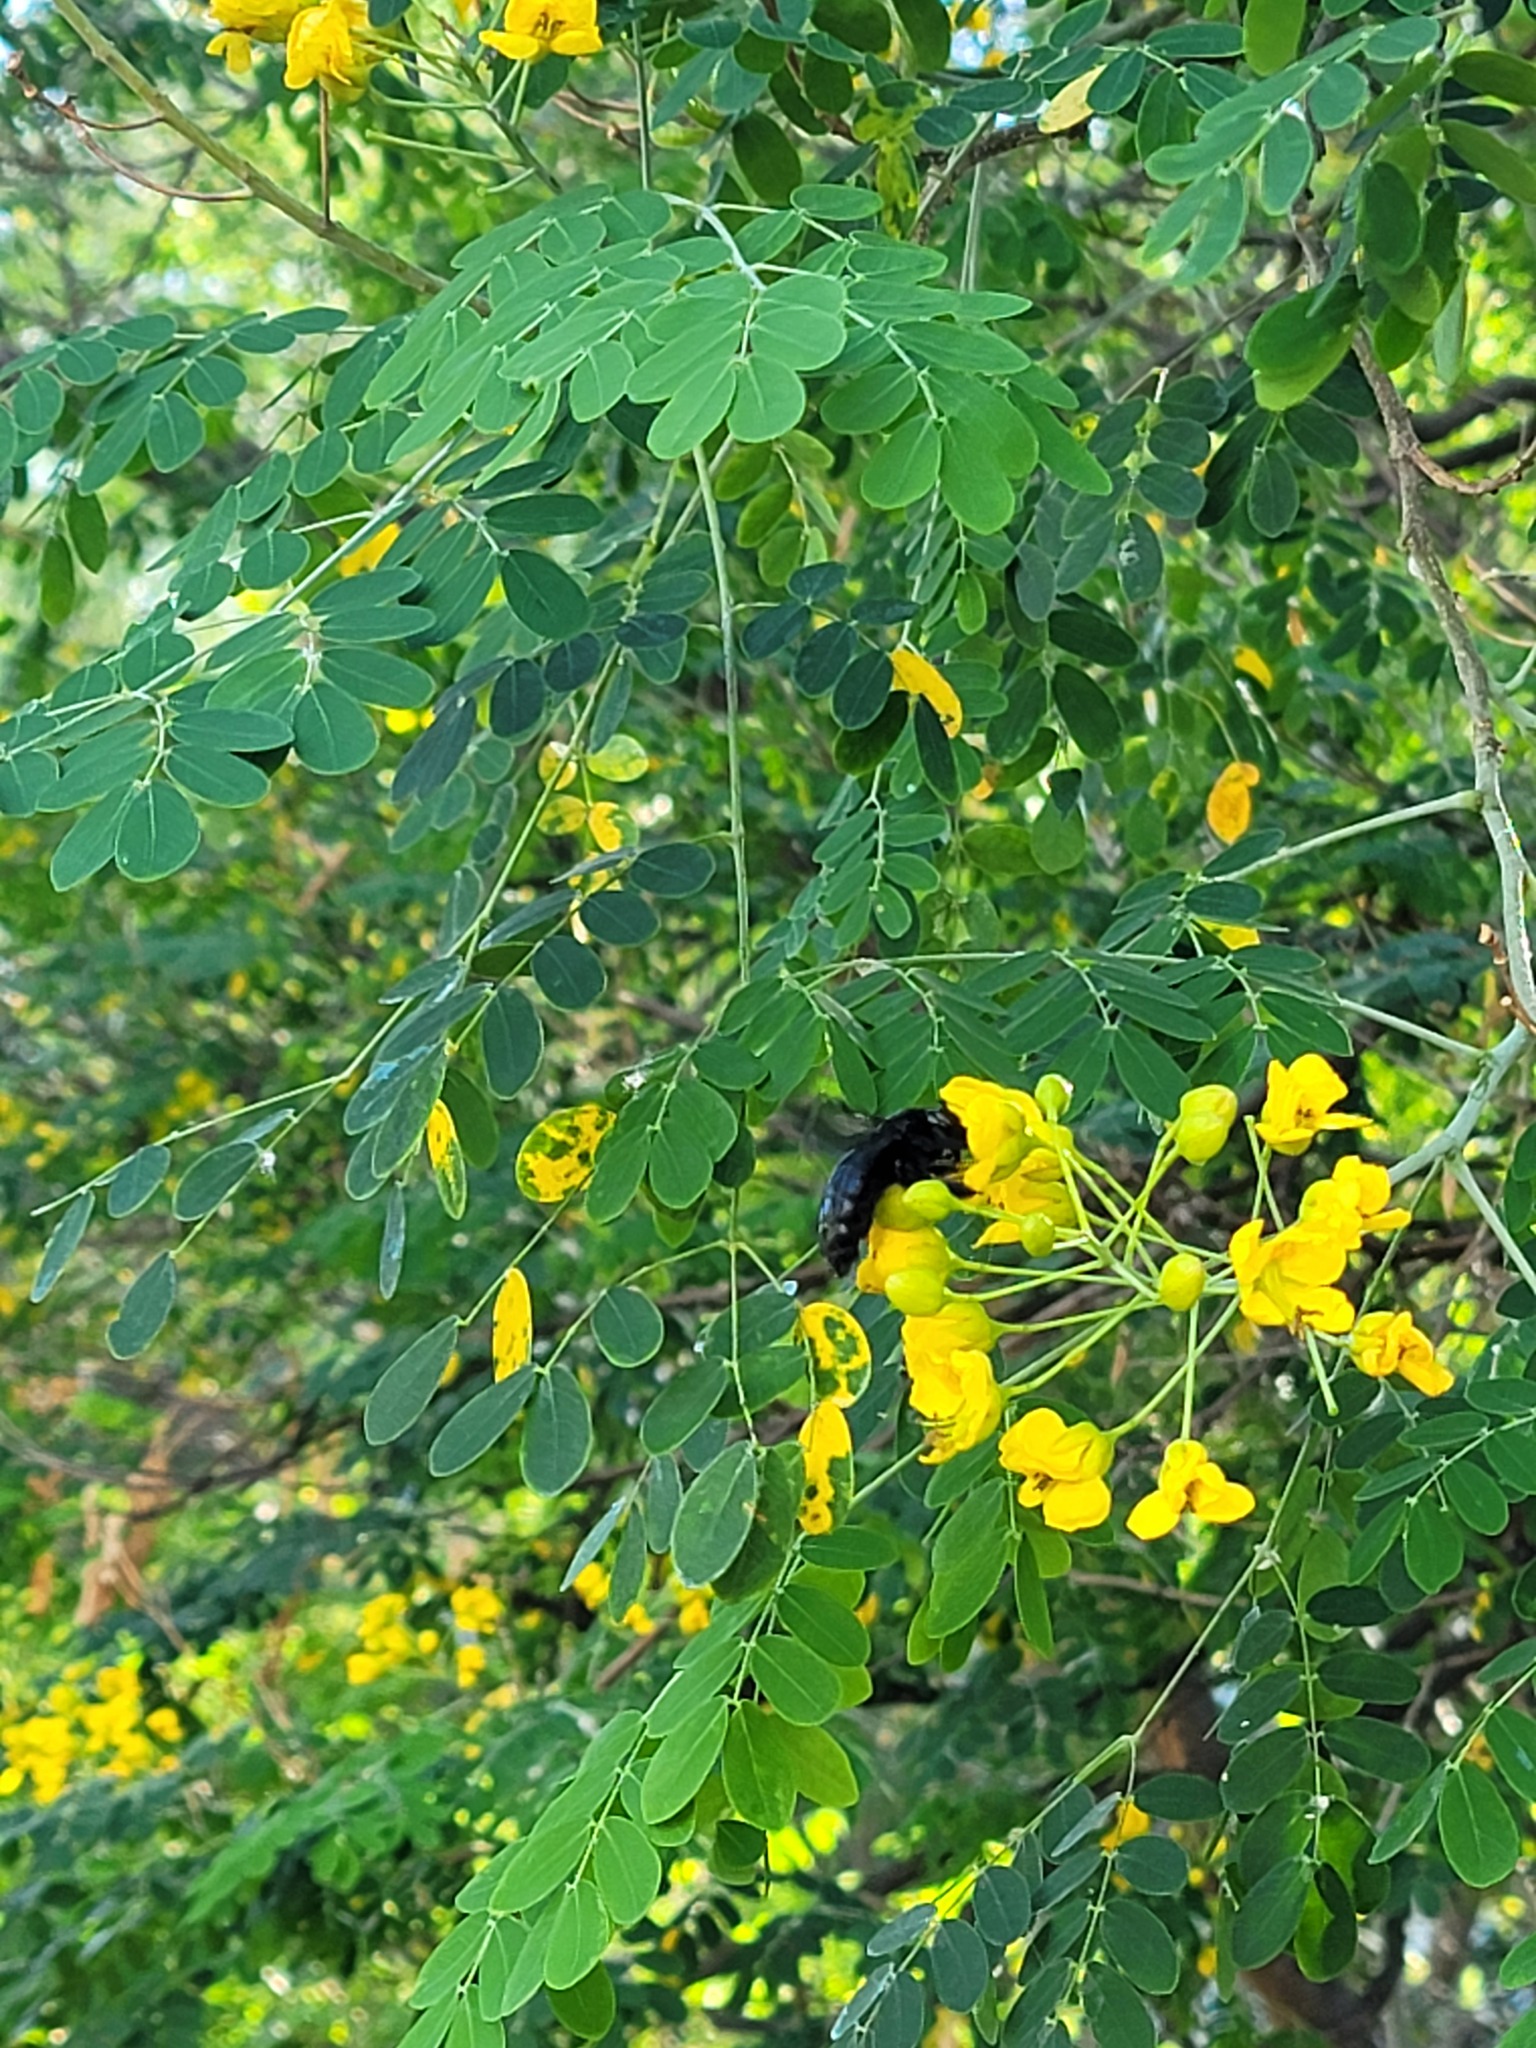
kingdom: Plantae
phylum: Tracheophyta
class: Magnoliopsida
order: Fabales
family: Fabaceae
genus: Erythrostemon
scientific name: Erythrostemon mexicanus
